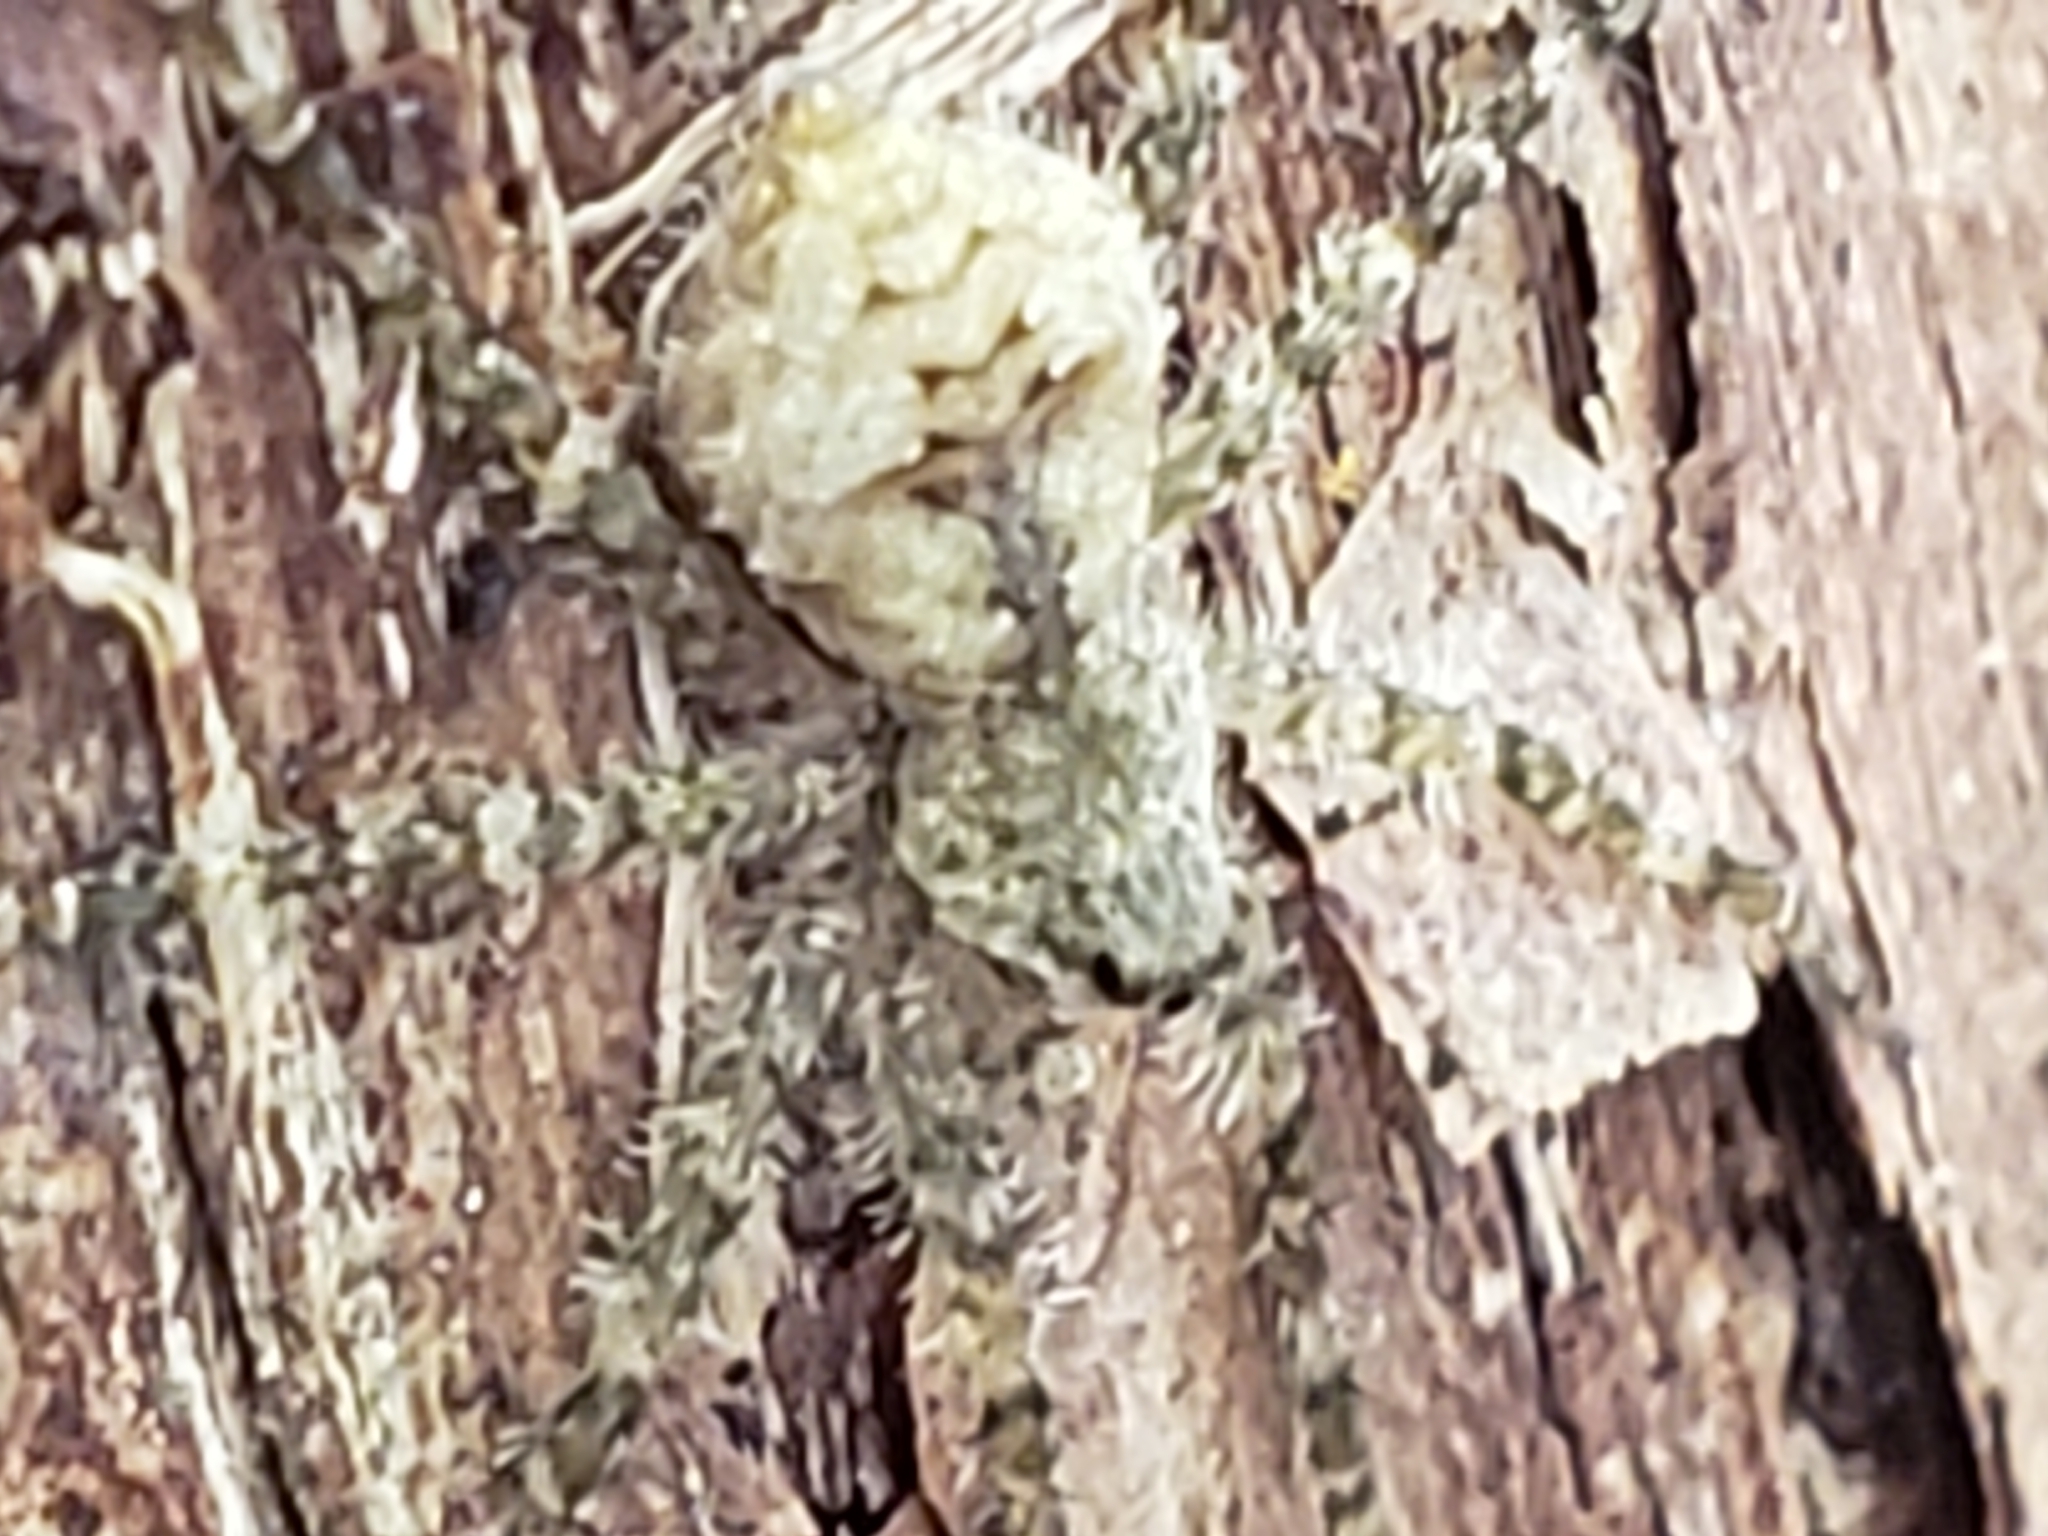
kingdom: Animalia
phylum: Arthropoda
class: Arachnida
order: Araneae
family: Pisauridae
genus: Dolomedes
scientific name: Dolomedes albineus
